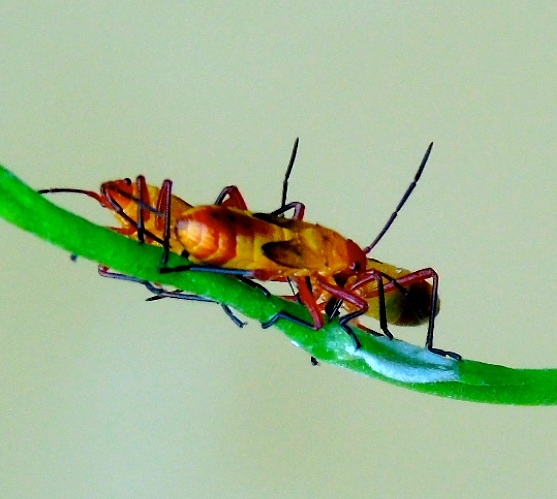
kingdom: Animalia
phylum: Arthropoda
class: Insecta
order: Hemiptera
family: Lygaeidae
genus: Oncopeltus
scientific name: Oncopeltus guttaloides
